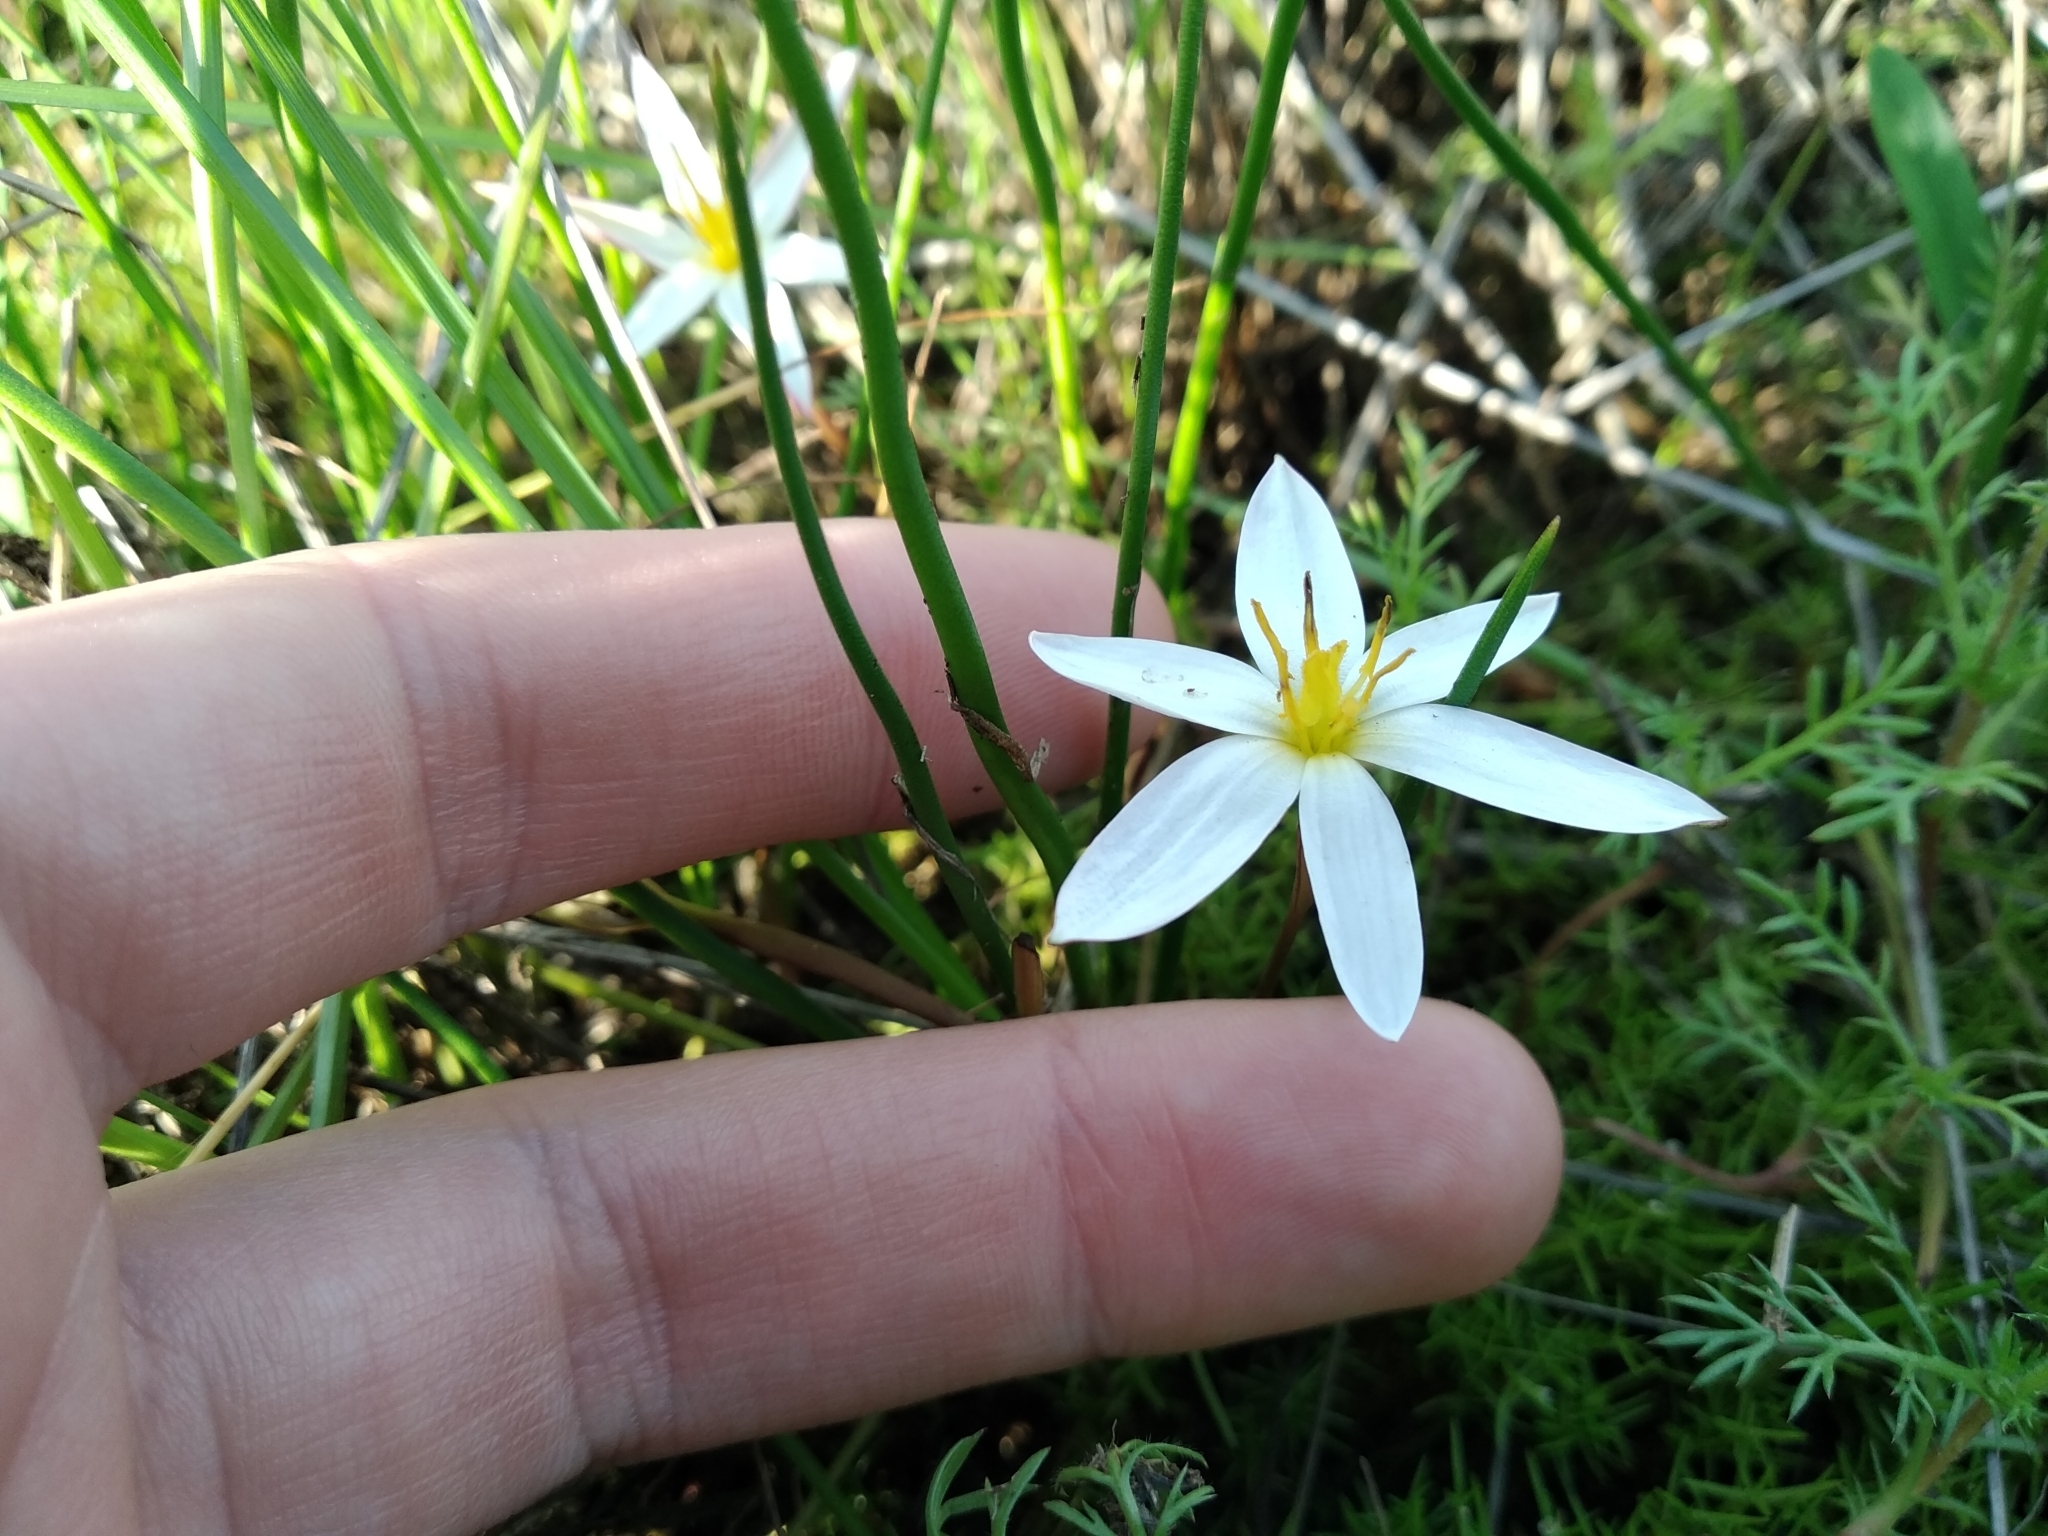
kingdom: Plantae
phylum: Tracheophyta
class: Liliopsida
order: Asparagales
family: Hypoxidaceae
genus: Pauridia
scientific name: Pauridia alba
